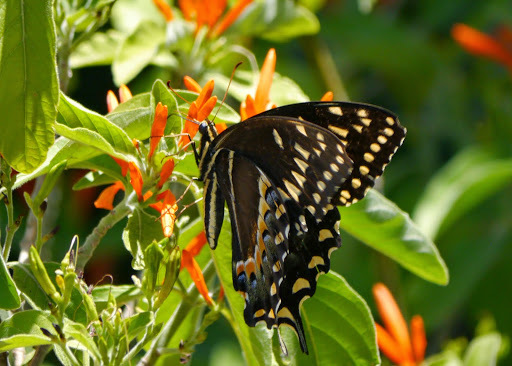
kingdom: Animalia
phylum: Arthropoda
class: Insecta
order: Lepidoptera
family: Papilionidae
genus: Papilio
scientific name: Papilio palamedes
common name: Palamedes swallowtail
